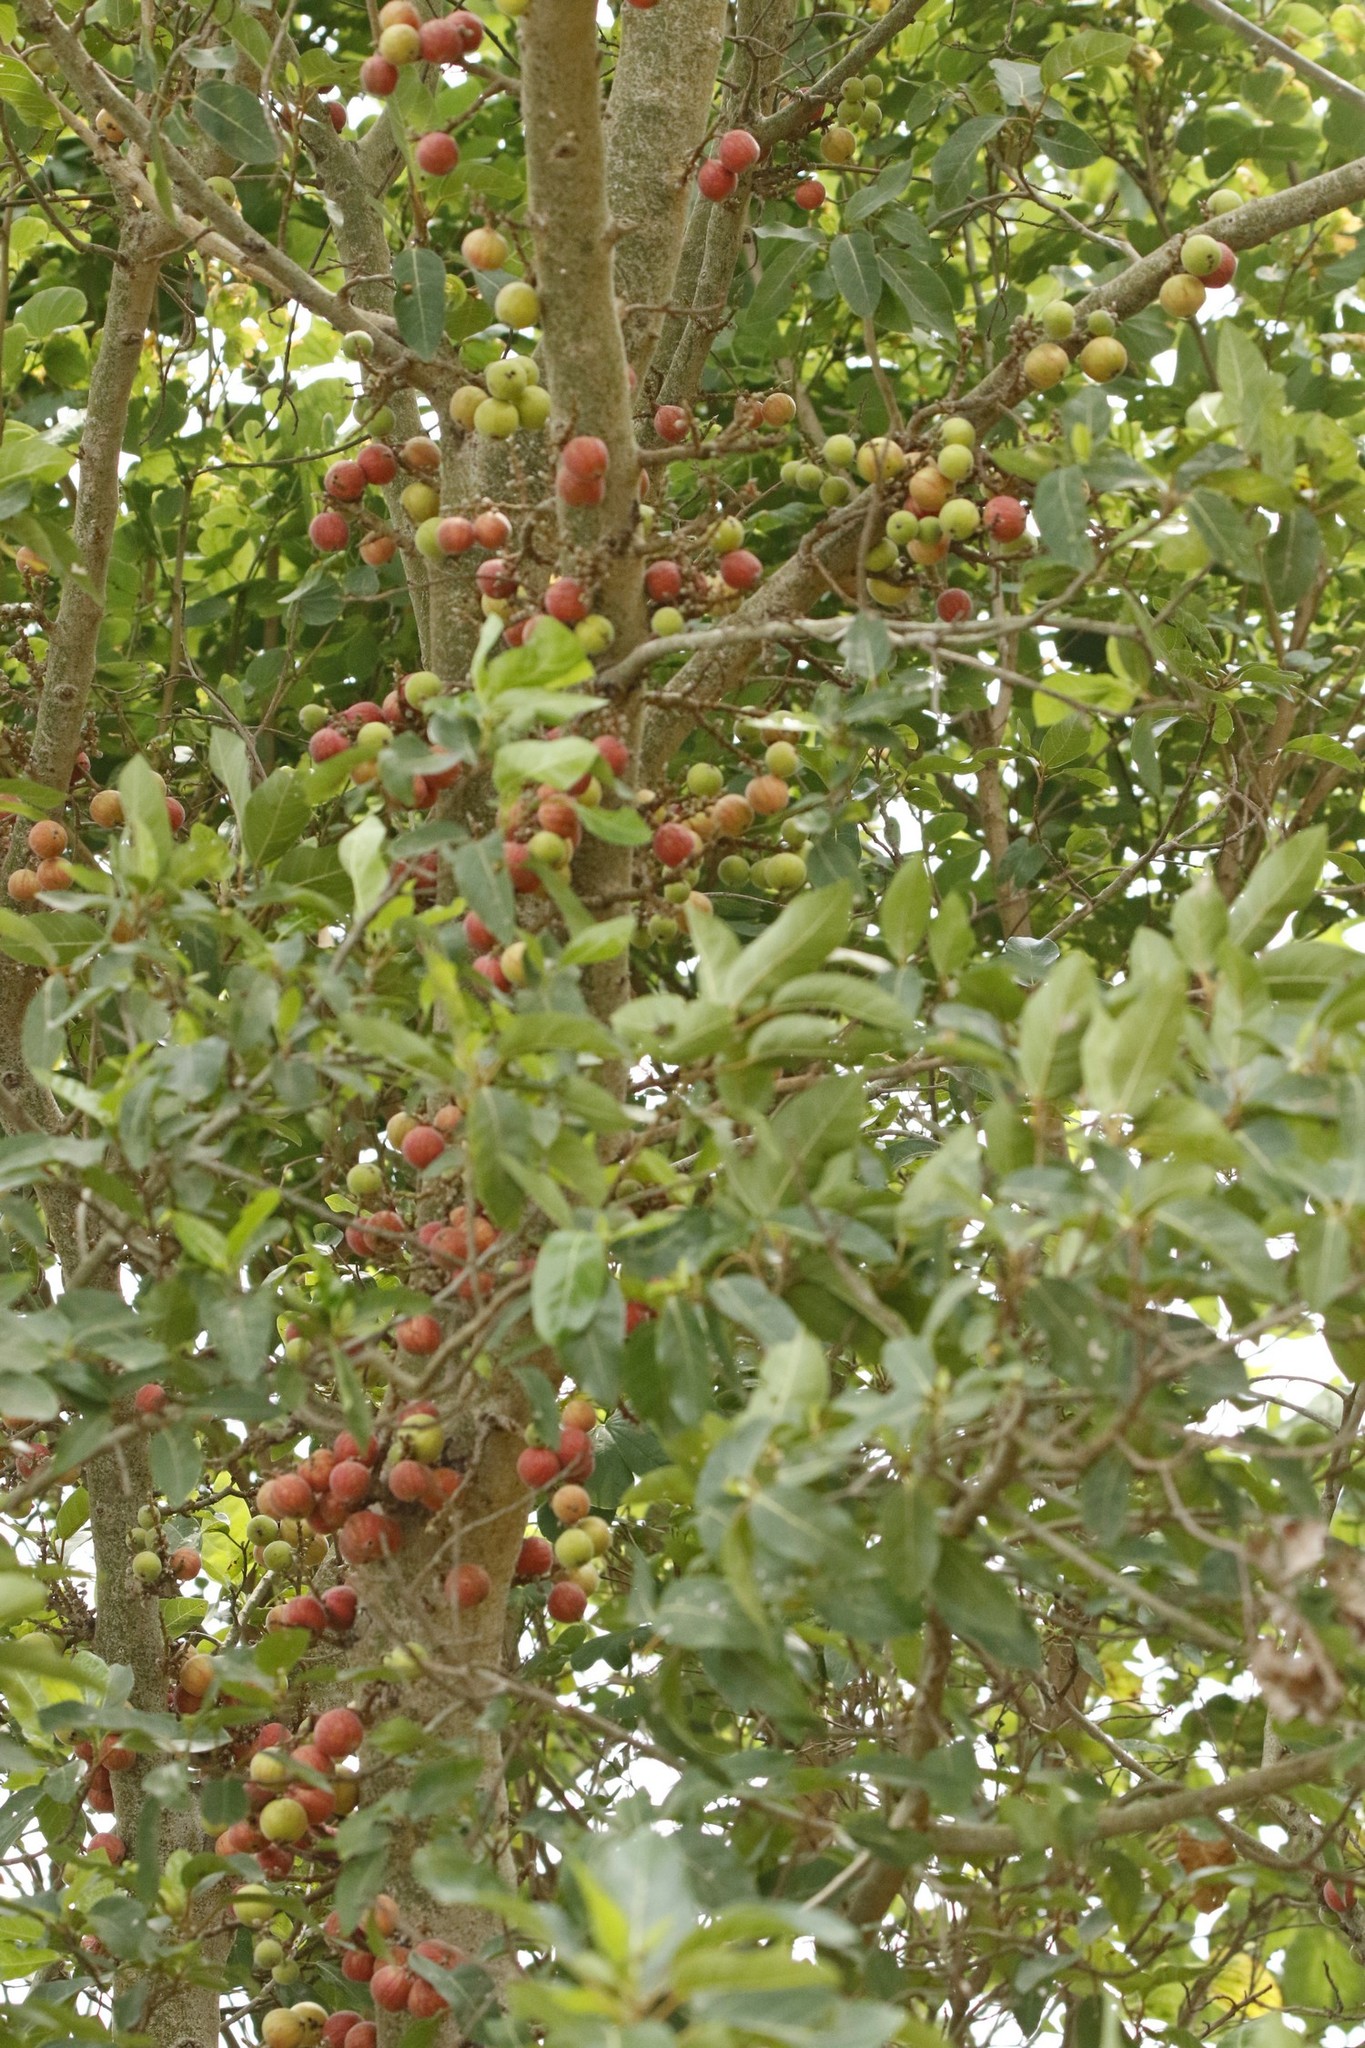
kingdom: Plantae
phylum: Tracheophyta
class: Magnoliopsida
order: Rosales
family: Moraceae
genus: Ficus
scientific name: Ficus racemosa
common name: Cluster fig
